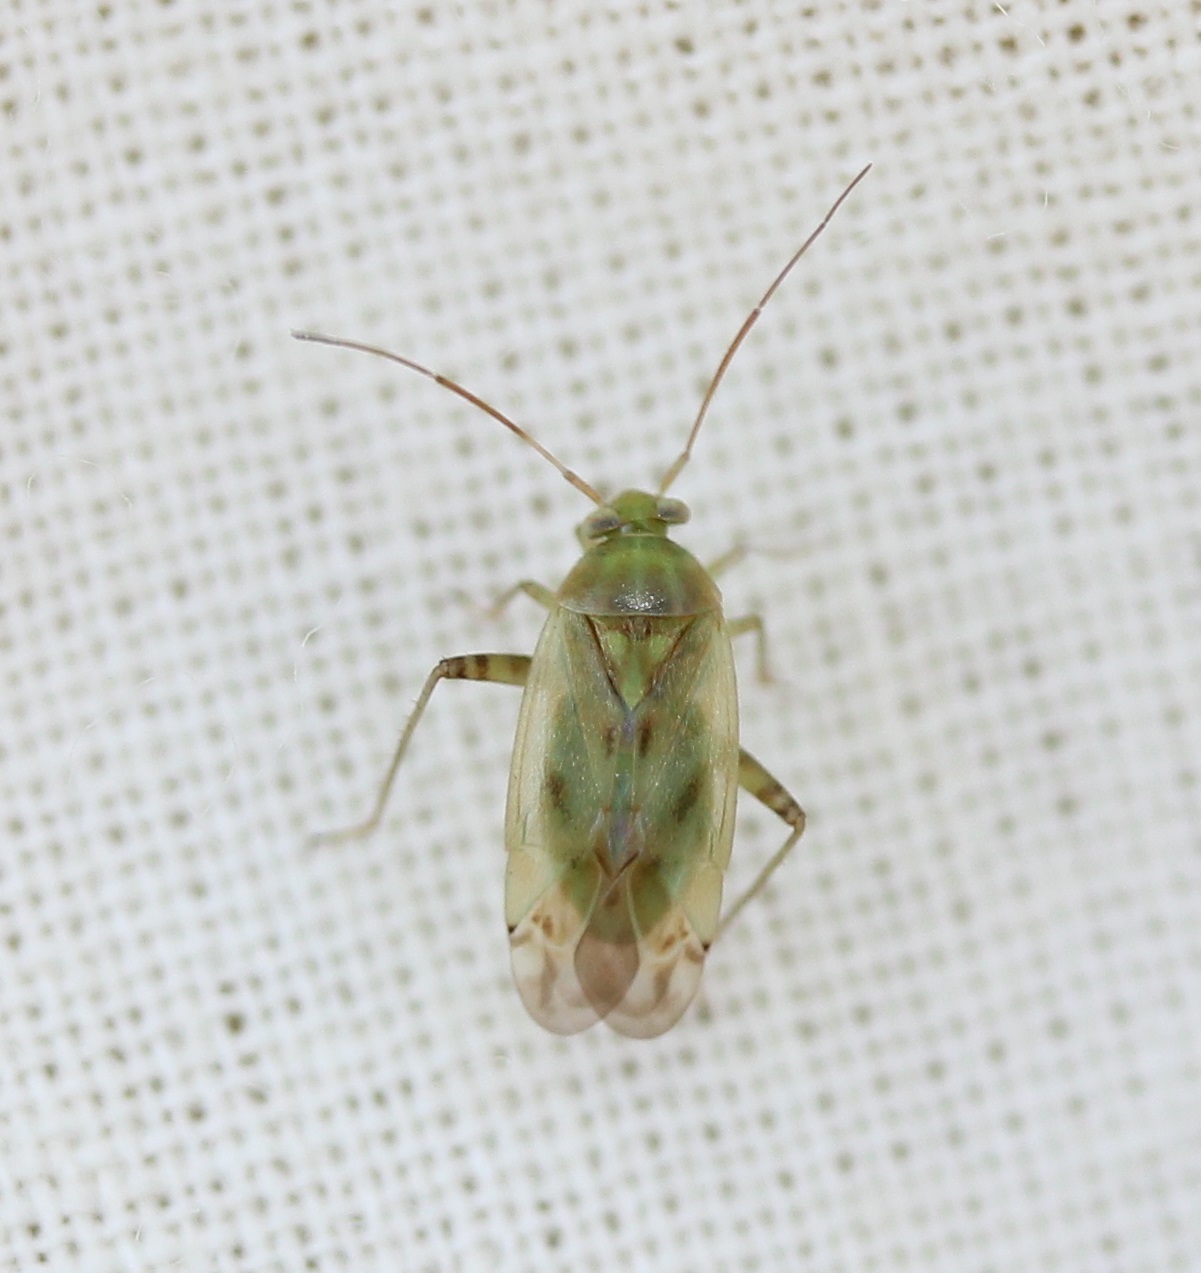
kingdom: Animalia
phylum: Arthropoda
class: Insecta
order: Hemiptera
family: Miridae
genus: Taylorilygus
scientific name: Taylorilygus apicalis
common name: Plant bug
